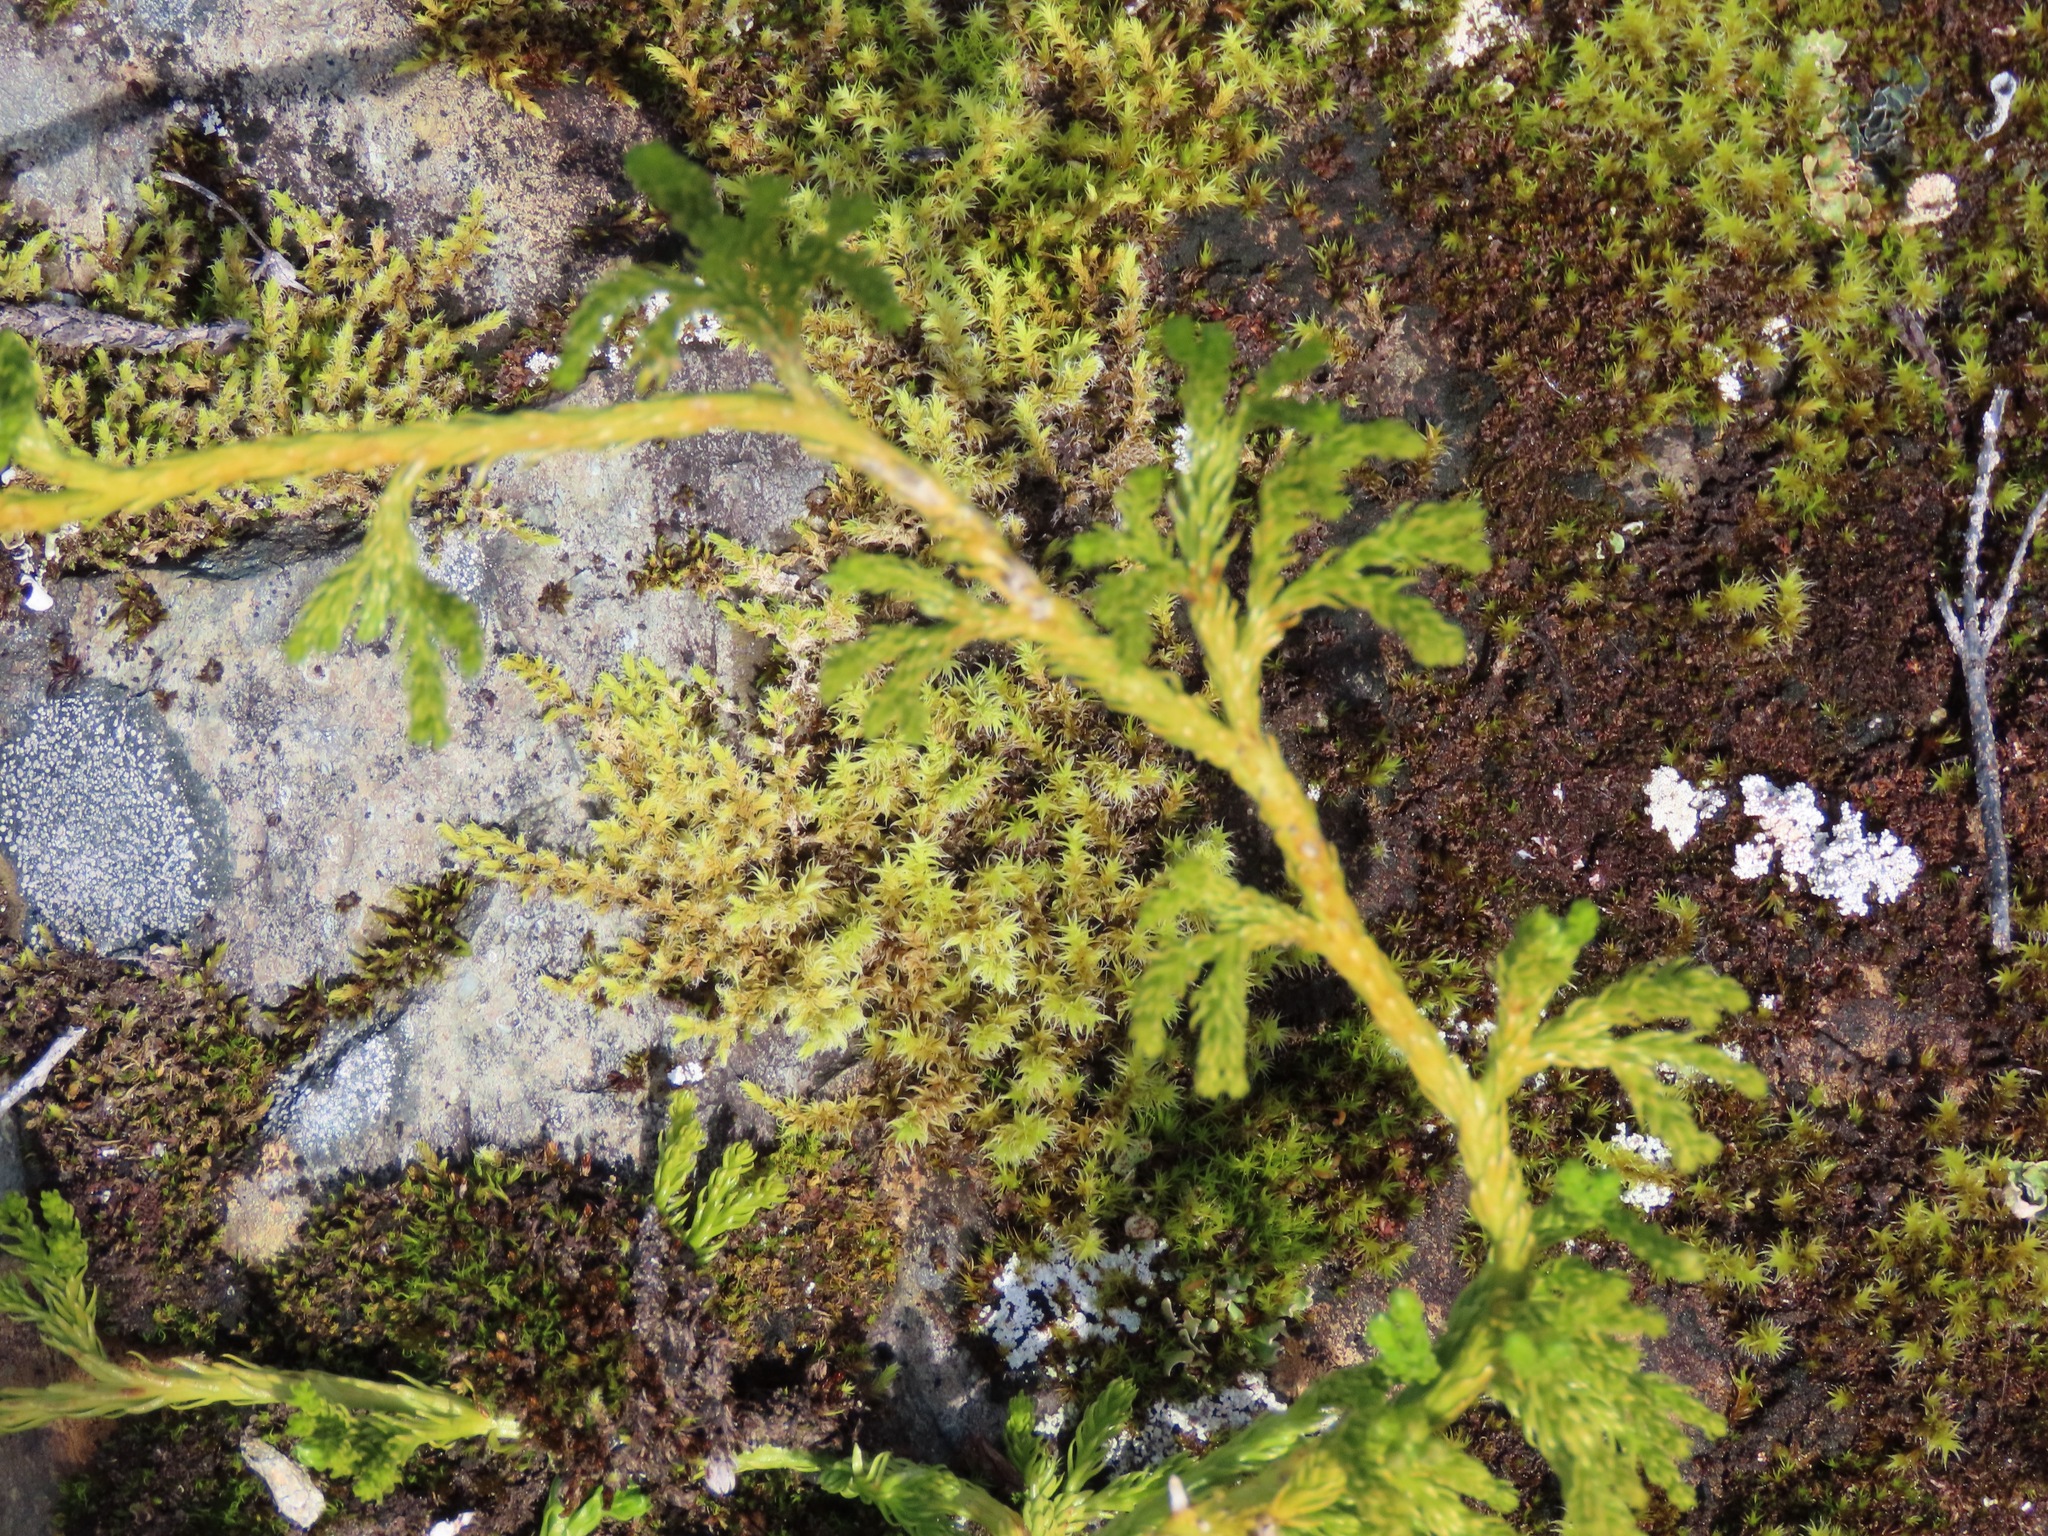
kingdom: Plantae
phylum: Tracheophyta
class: Lycopodiopsida
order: Lycopodiales
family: Lycopodiaceae
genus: Diphasiastrum
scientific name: Diphasiastrum sitchense
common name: Alaska clubmoss
